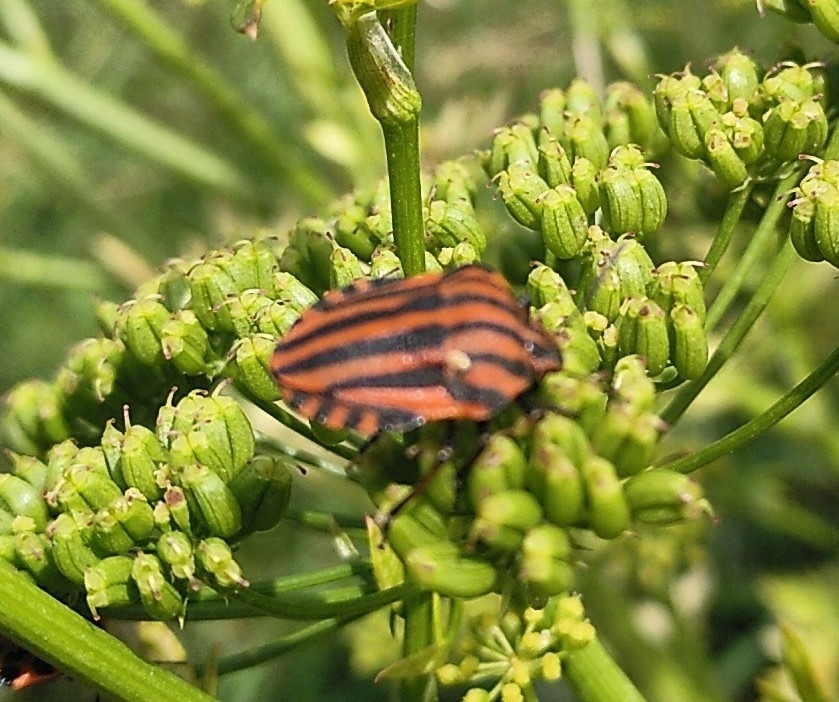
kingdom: Animalia
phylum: Arthropoda
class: Insecta
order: Hemiptera
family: Pentatomidae
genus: Graphosoma
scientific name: Graphosoma italicum
